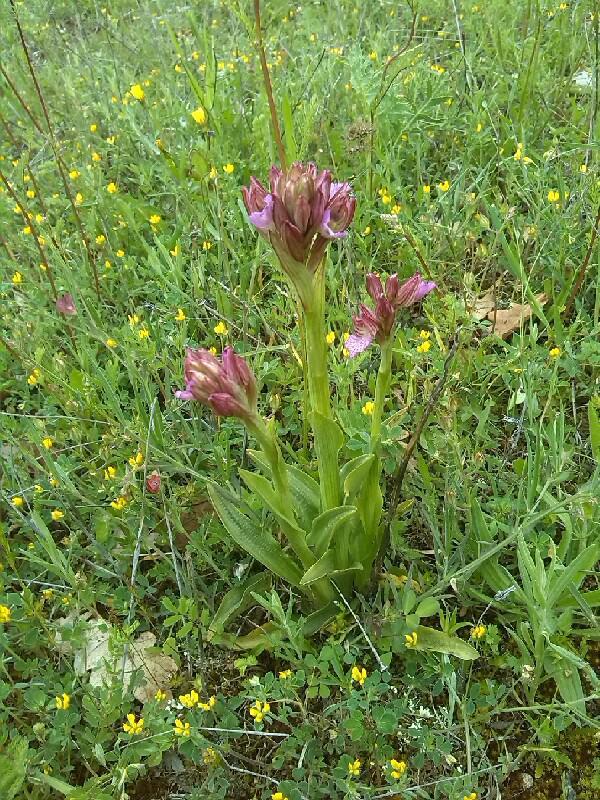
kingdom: Plantae
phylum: Tracheophyta
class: Liliopsida
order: Asparagales
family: Orchidaceae
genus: Anacamptis
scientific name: Anacamptis papilionacea
